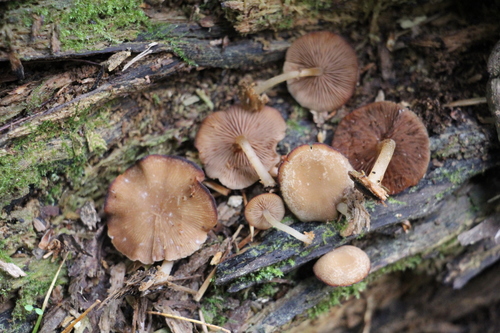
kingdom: Fungi
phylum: Basidiomycota
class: Agaricomycetes
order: Agaricales
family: Psathyrellaceae
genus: Psathyrella
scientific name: Psathyrella pygmaea
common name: Pygmy brittlestem
